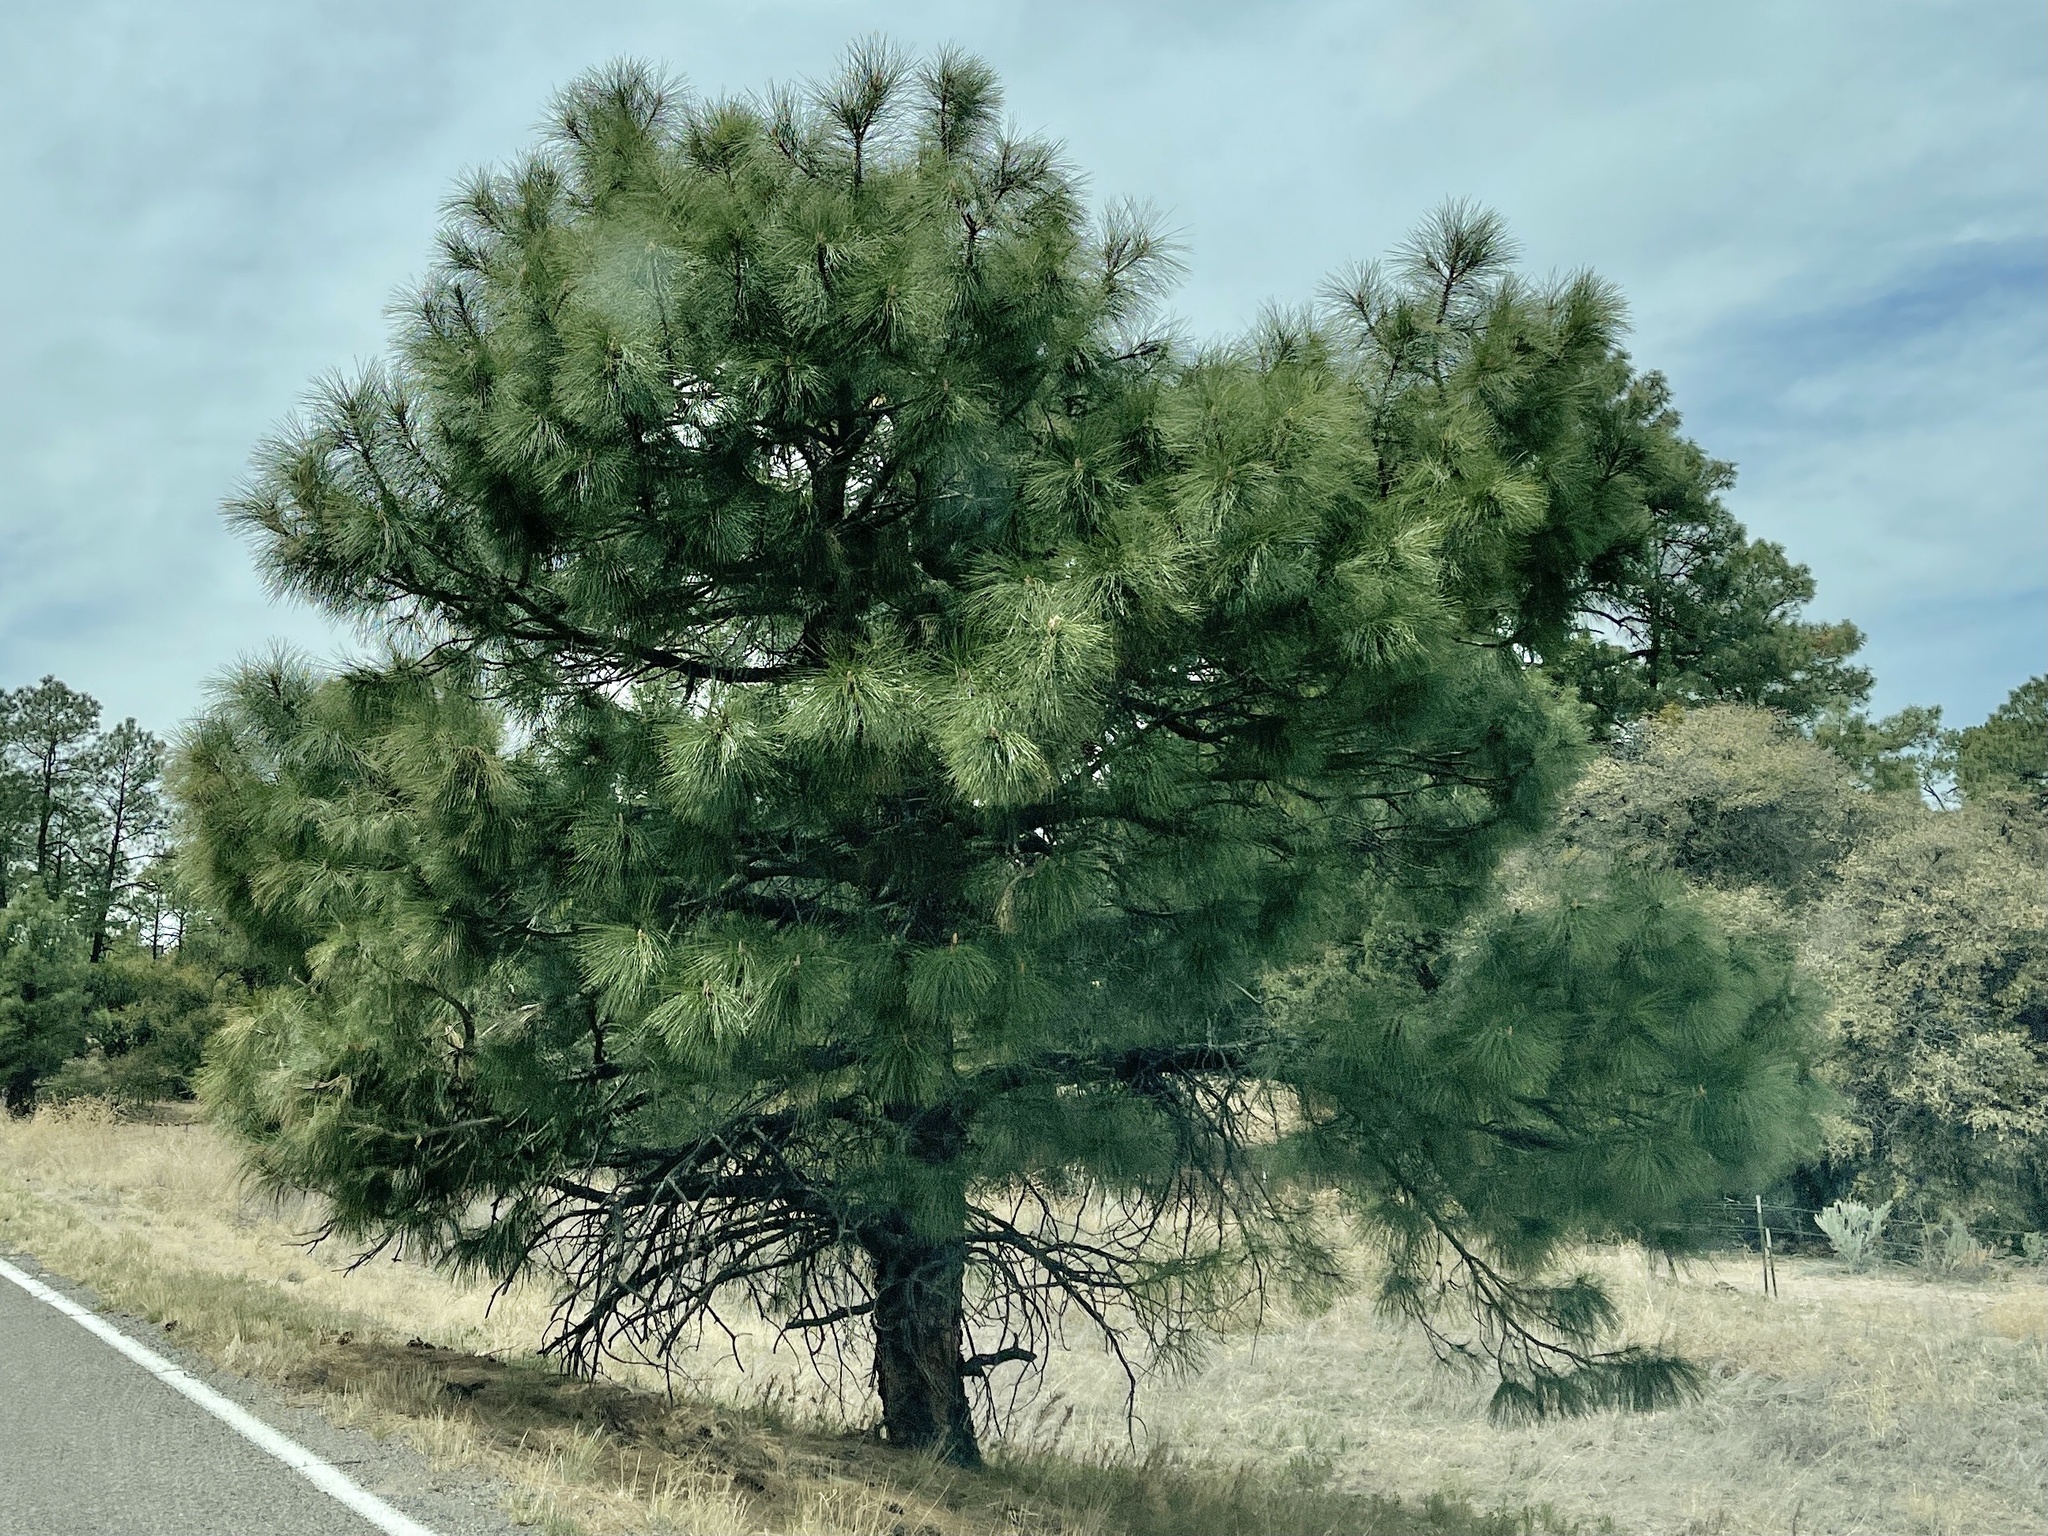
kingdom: Plantae
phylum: Tracheophyta
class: Pinopsida
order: Pinales
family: Pinaceae
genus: Pinus
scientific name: Pinus leiophylla
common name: Chihuahua pine
